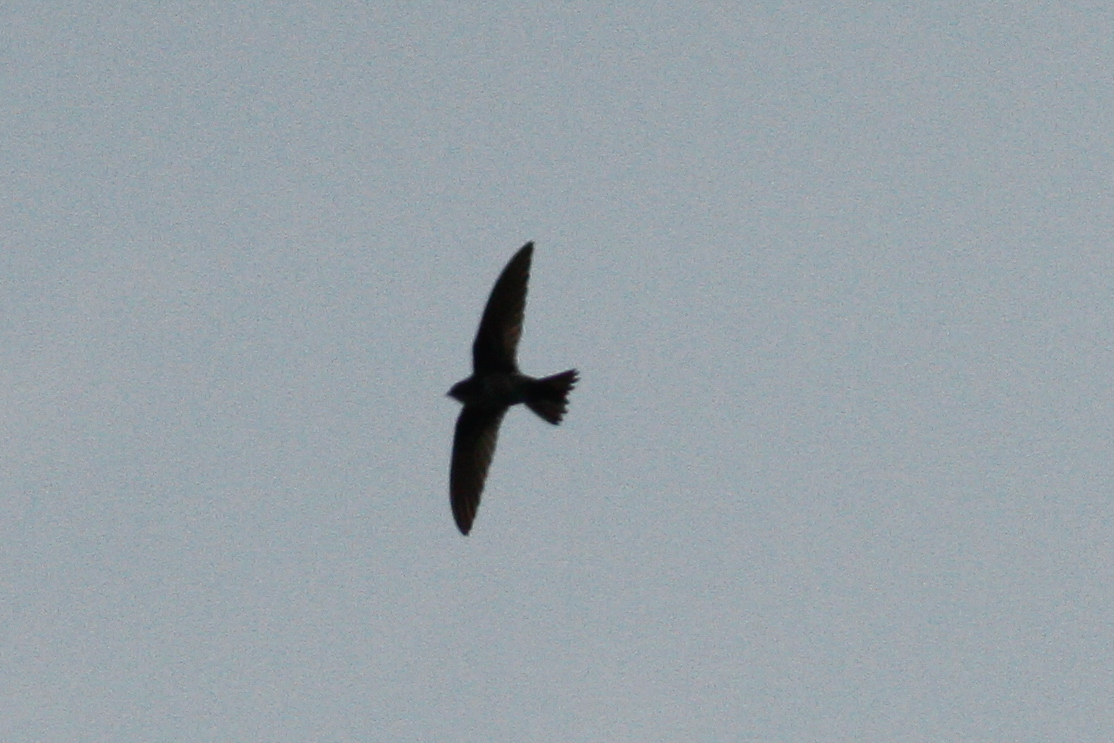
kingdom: Animalia
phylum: Chordata
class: Aves
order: Apodiformes
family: Apodidae
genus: Hirundapus
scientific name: Hirundapus giganteus
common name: Brown-backed needletail
